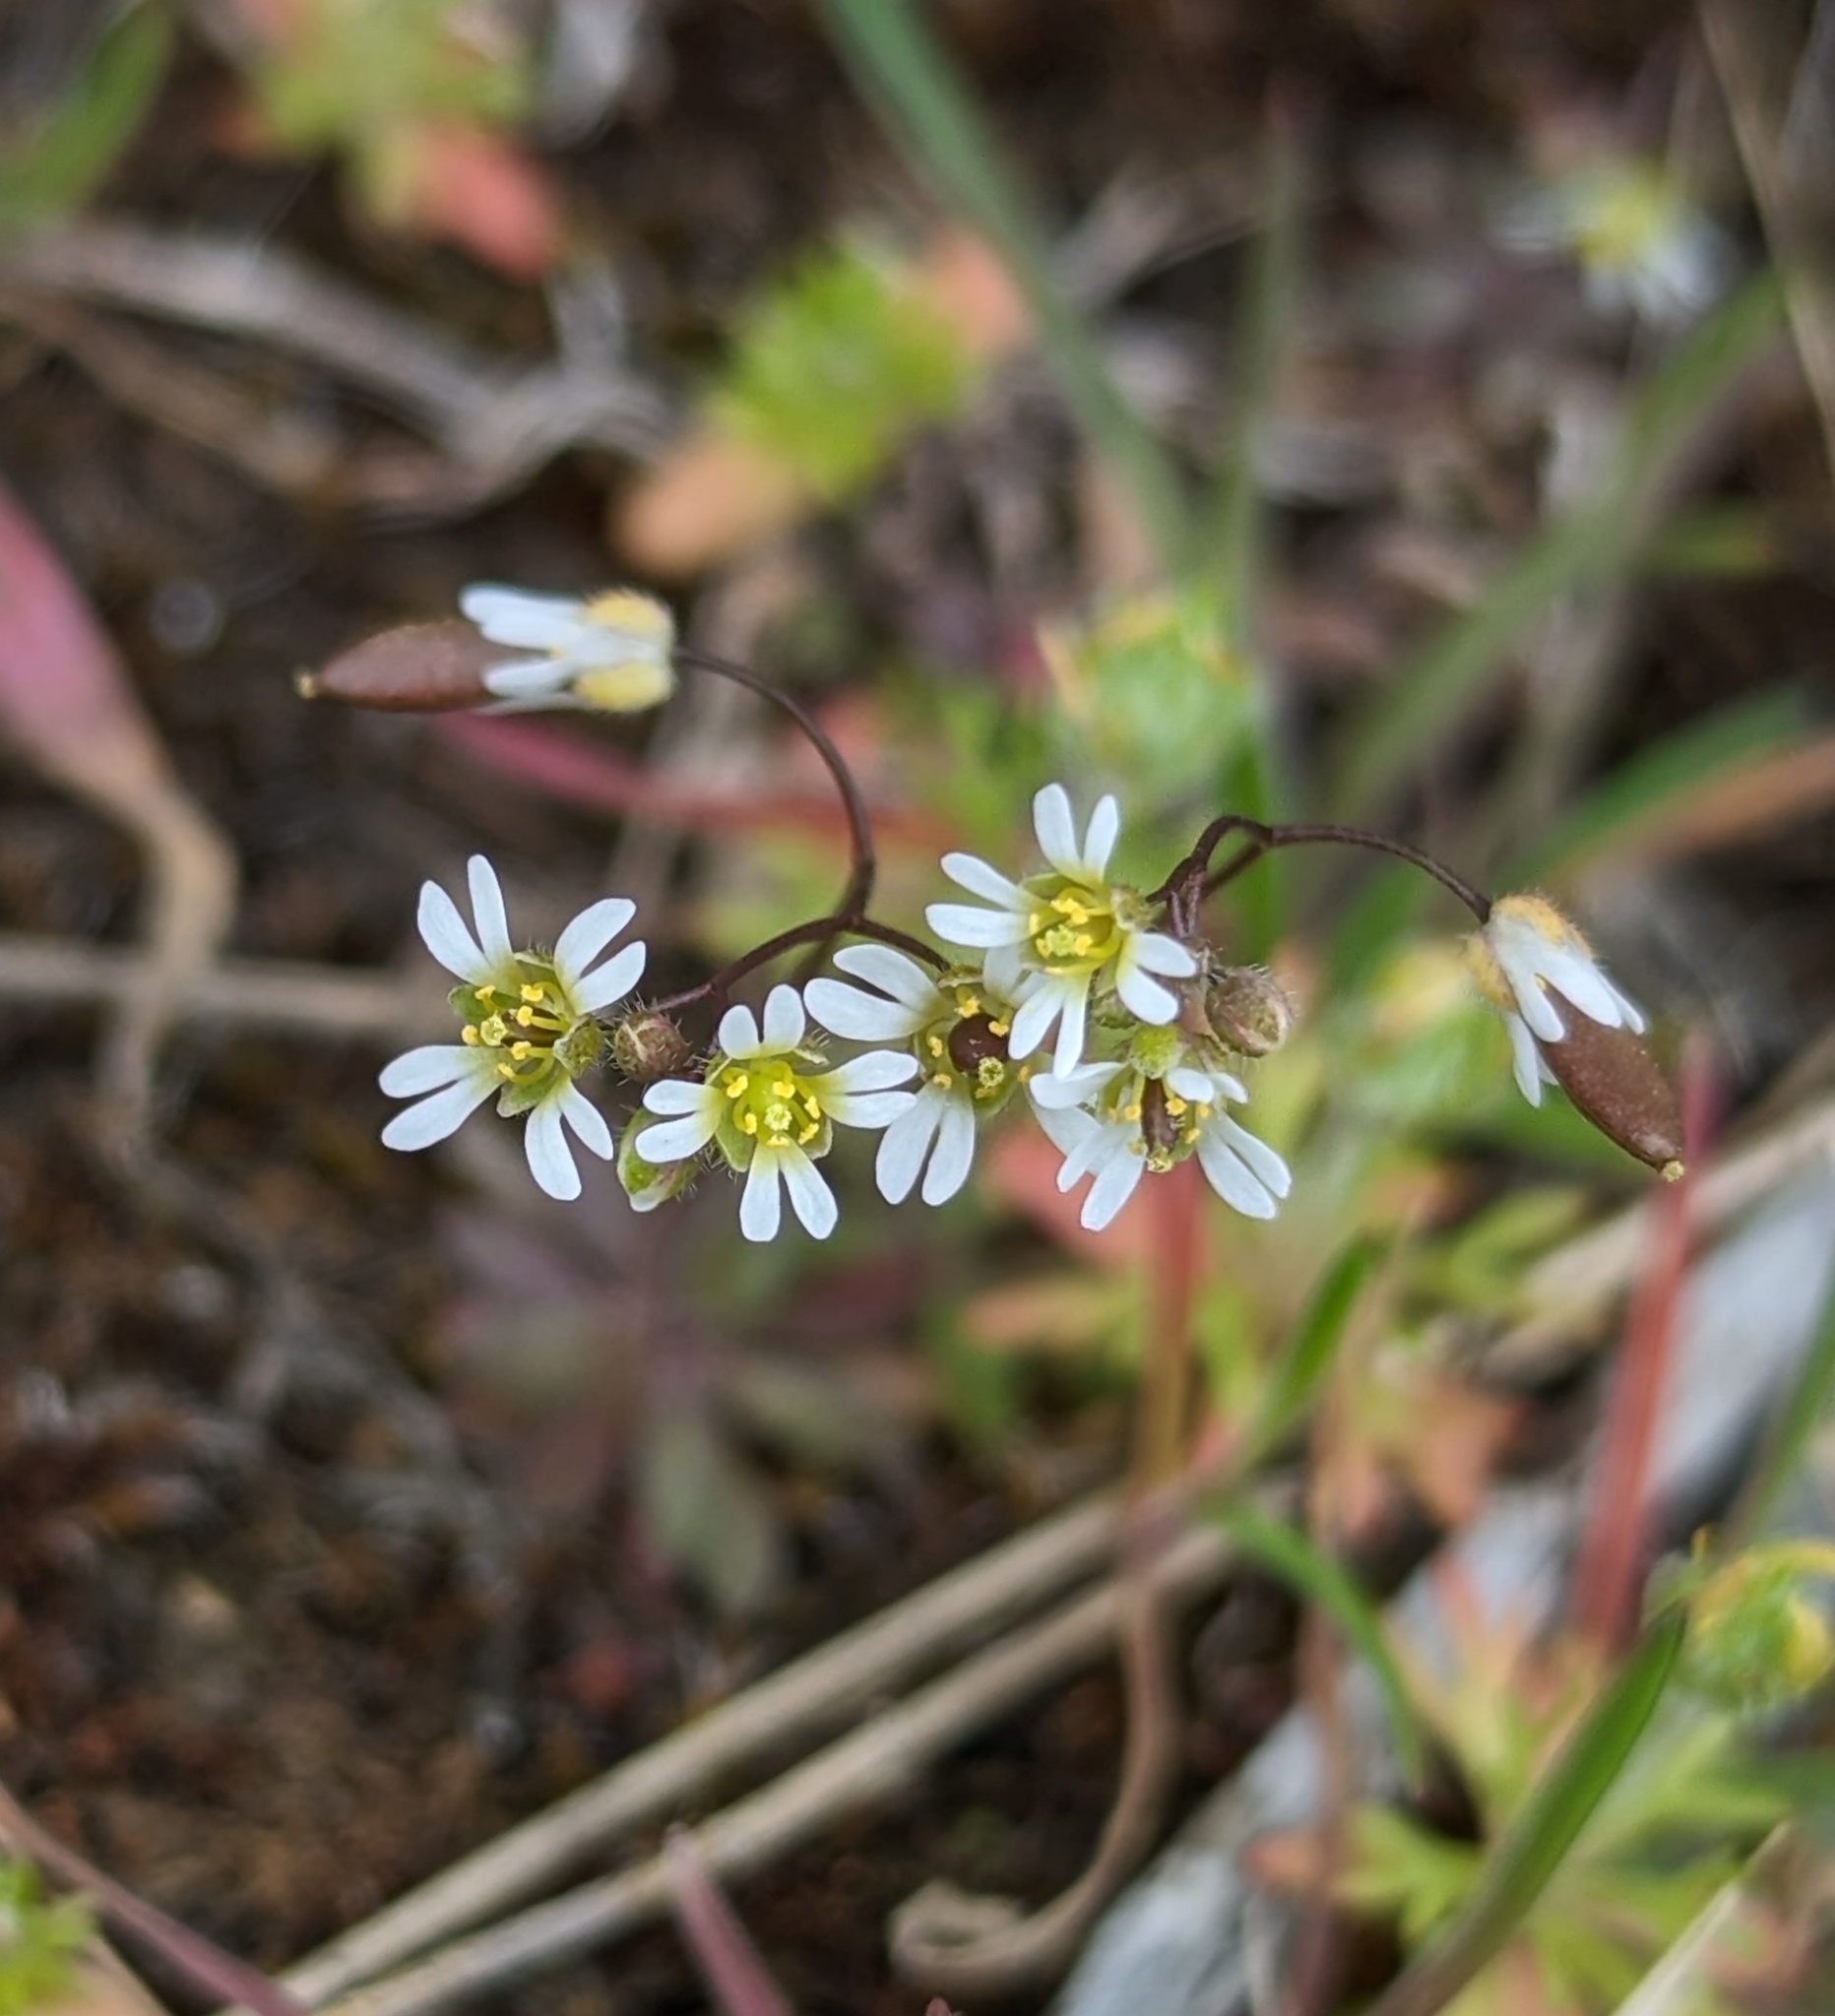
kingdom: Plantae
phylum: Tracheophyta
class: Magnoliopsida
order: Brassicales
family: Brassicaceae
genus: Draba
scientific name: Draba verna
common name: Spring draba
